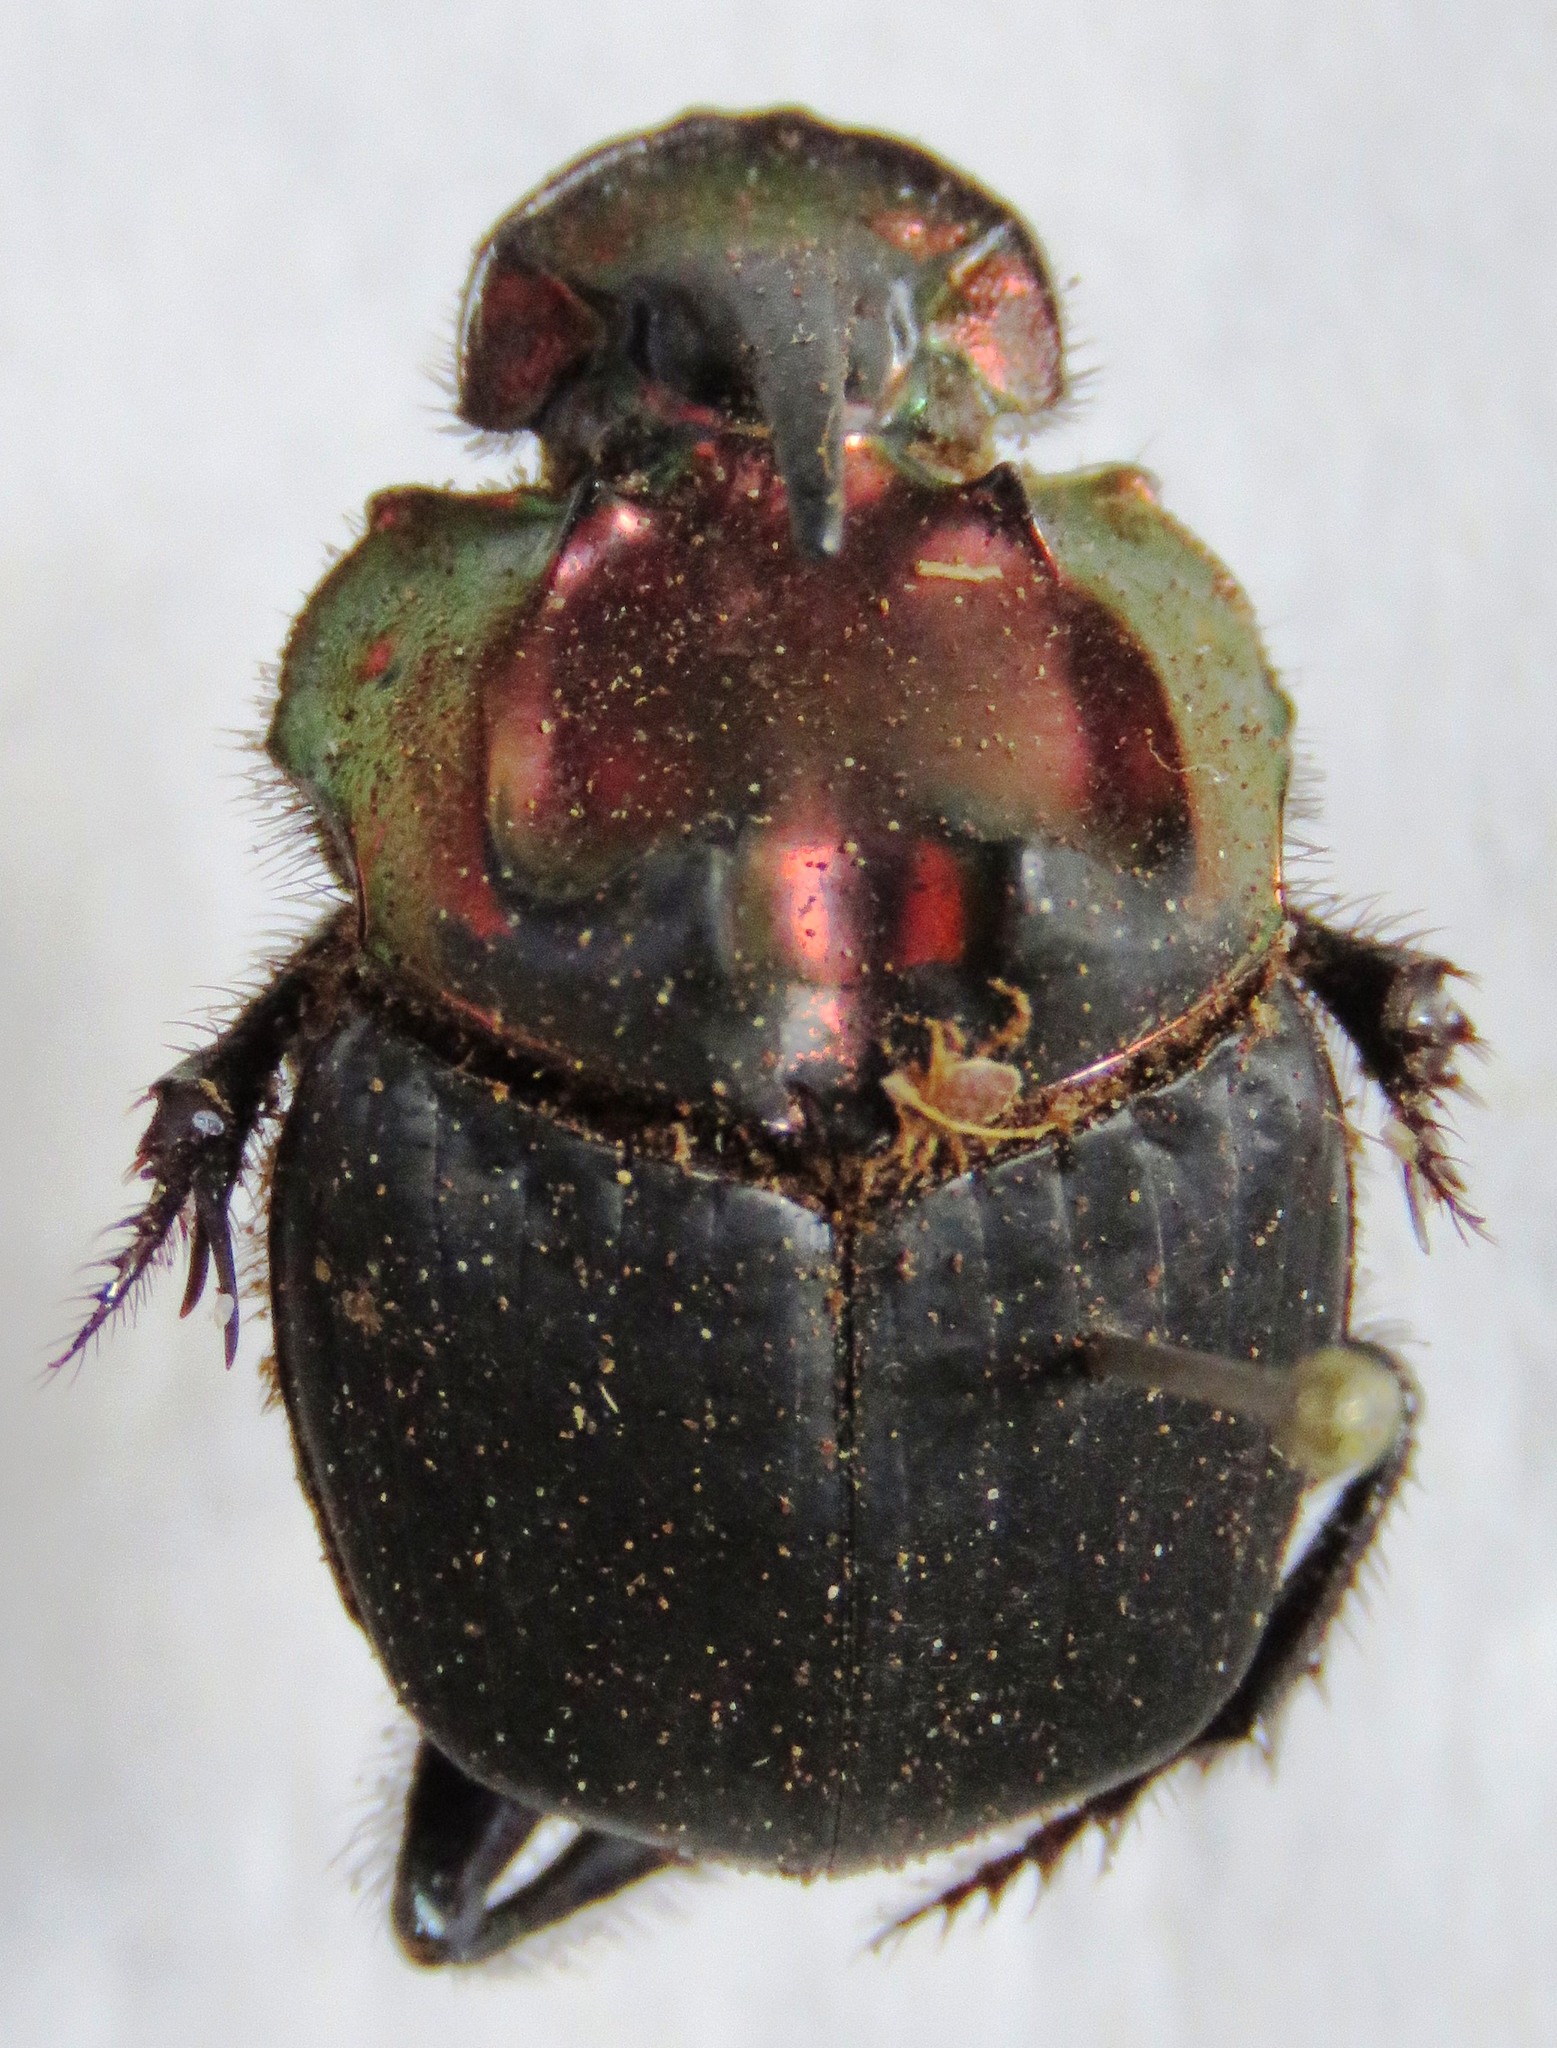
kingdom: Animalia
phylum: Arthropoda
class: Insecta
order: Coleoptera
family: Scarabaeidae
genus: Sulcophanaeus
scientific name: Sulcophanaeus noctis
